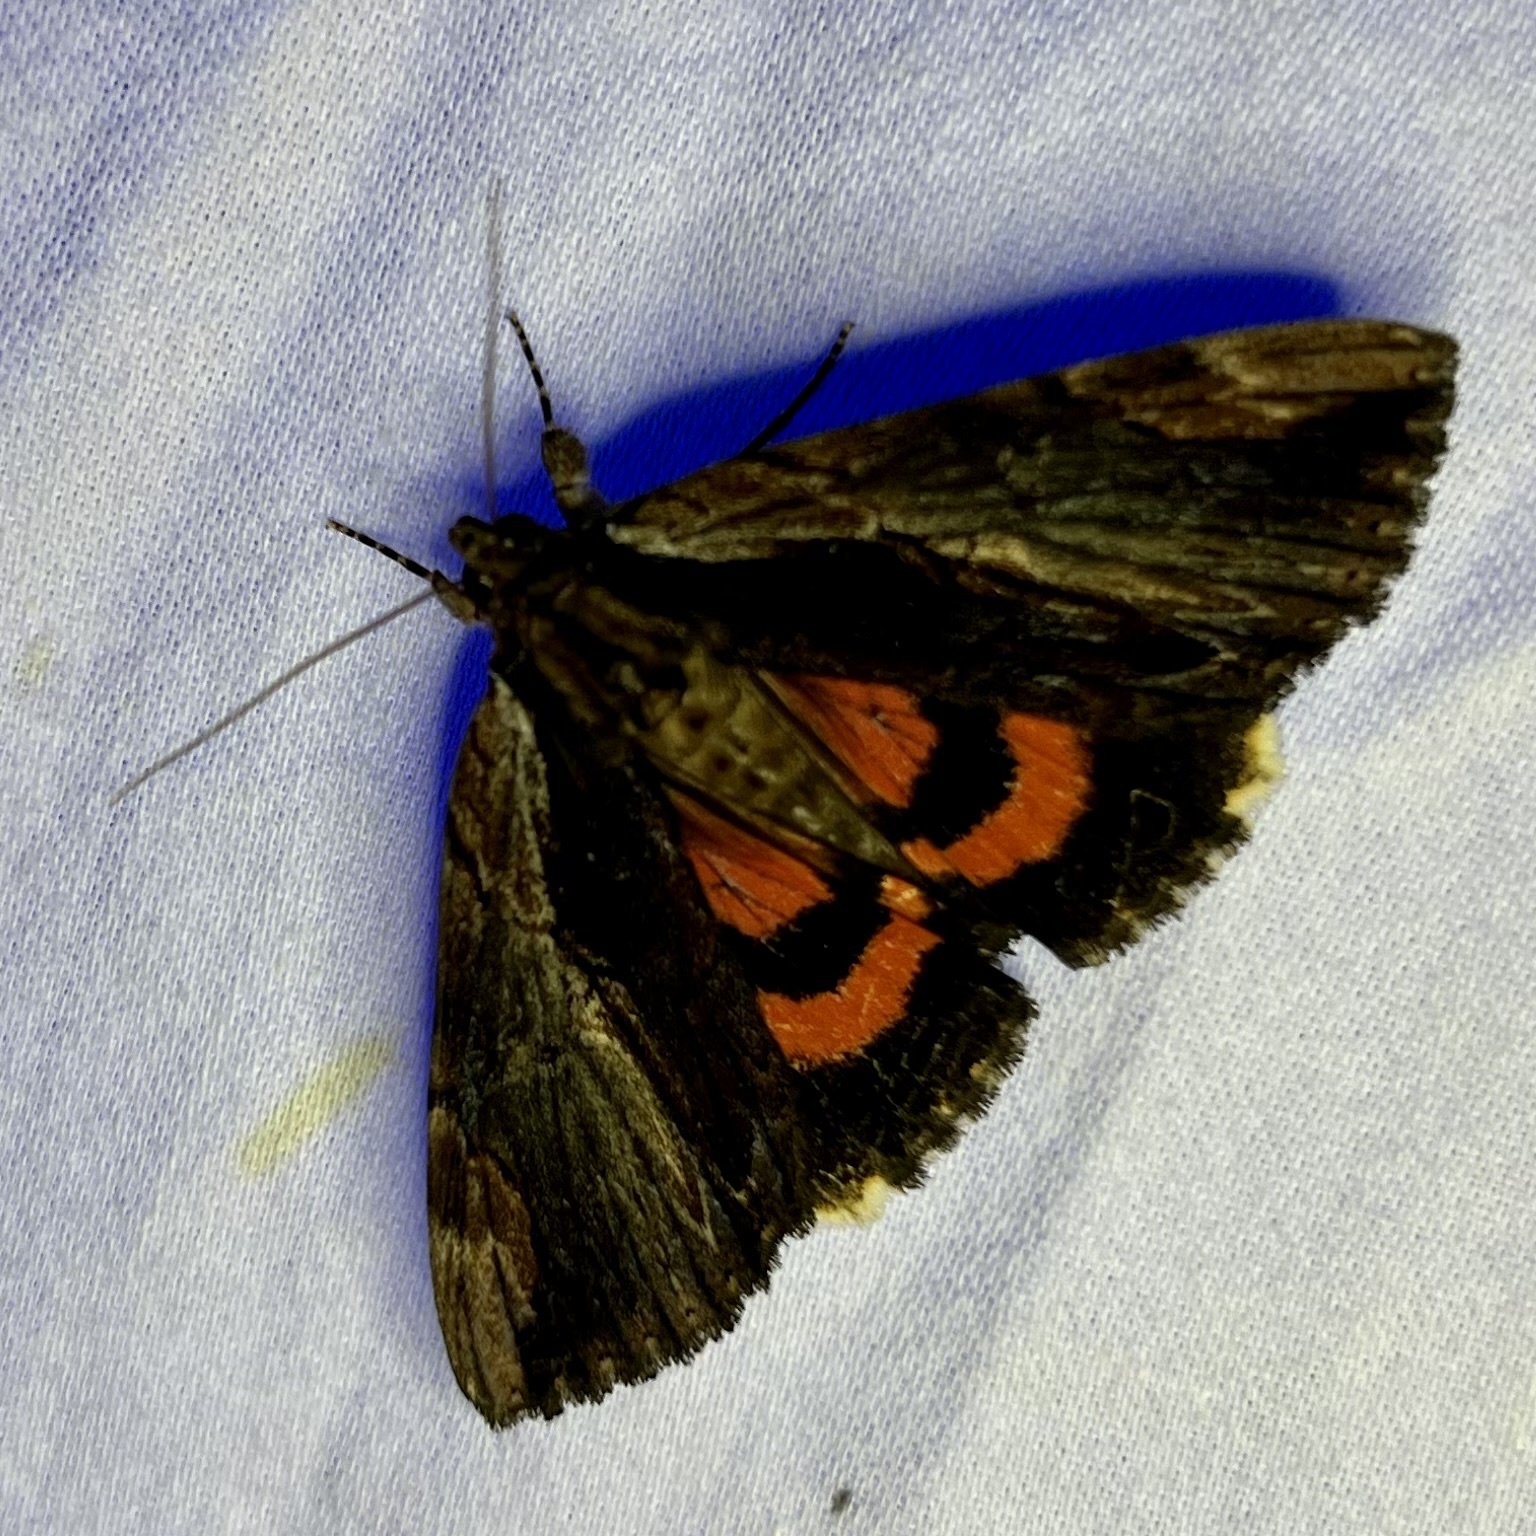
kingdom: Animalia
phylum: Arthropoda
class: Insecta
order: Lepidoptera
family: Erebidae
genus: Catocala
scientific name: Catocala ultronia
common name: Ultronia underwing
